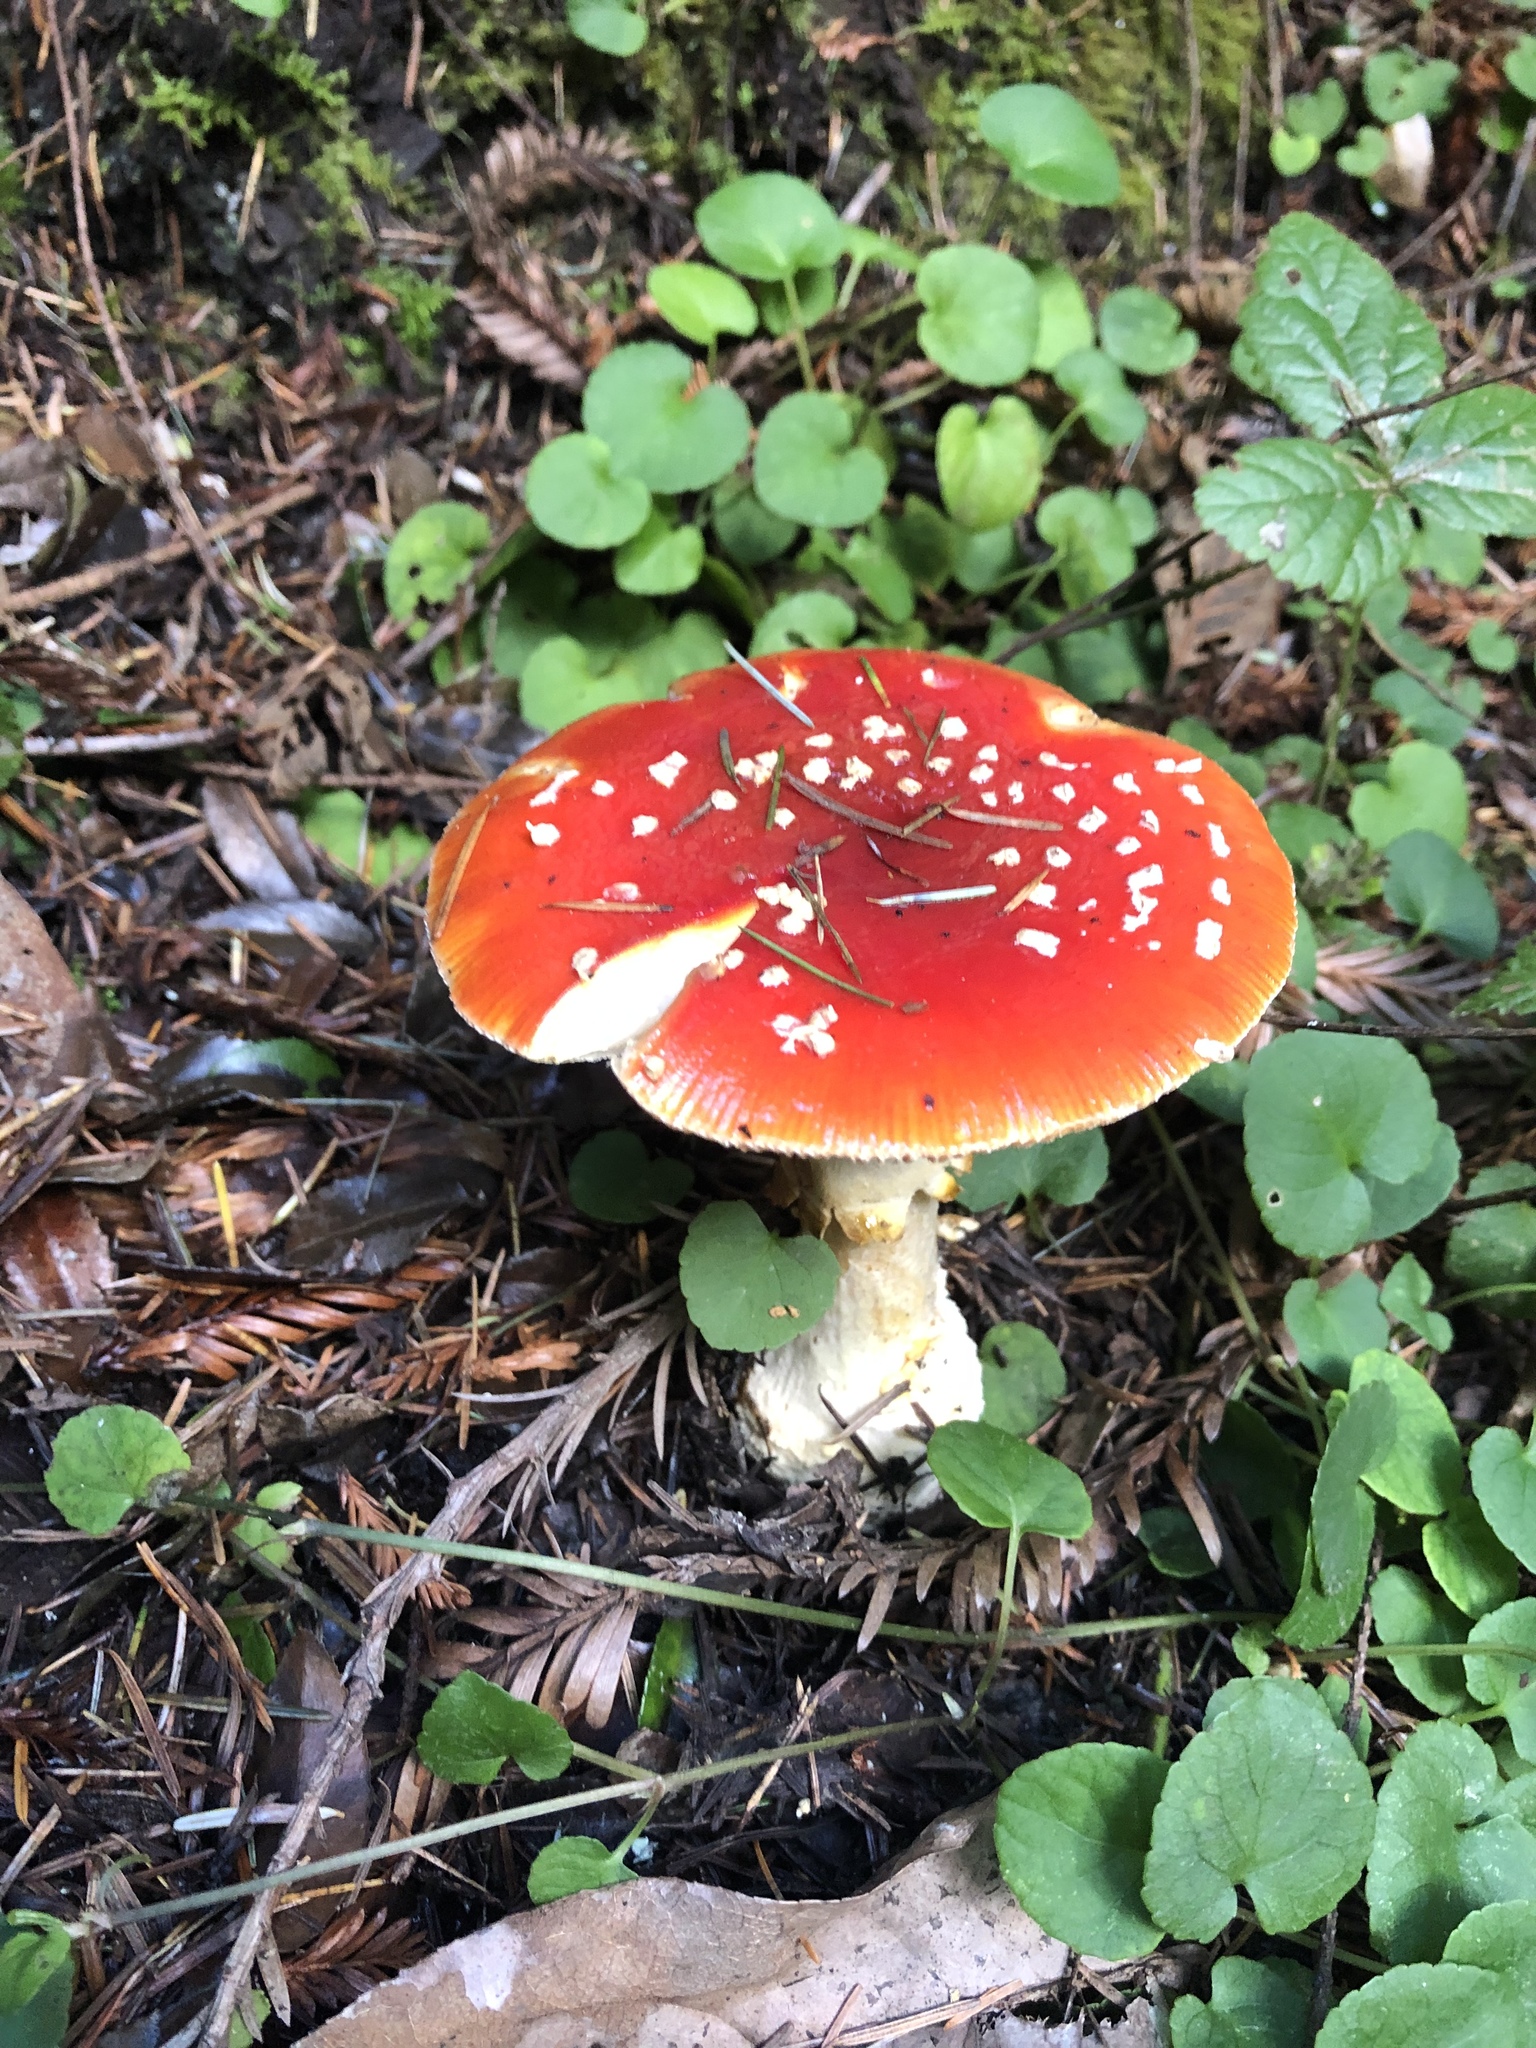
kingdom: Fungi
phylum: Basidiomycota
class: Agaricomycetes
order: Agaricales
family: Amanitaceae
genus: Amanita
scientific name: Amanita muscaria
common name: Fly agaric
